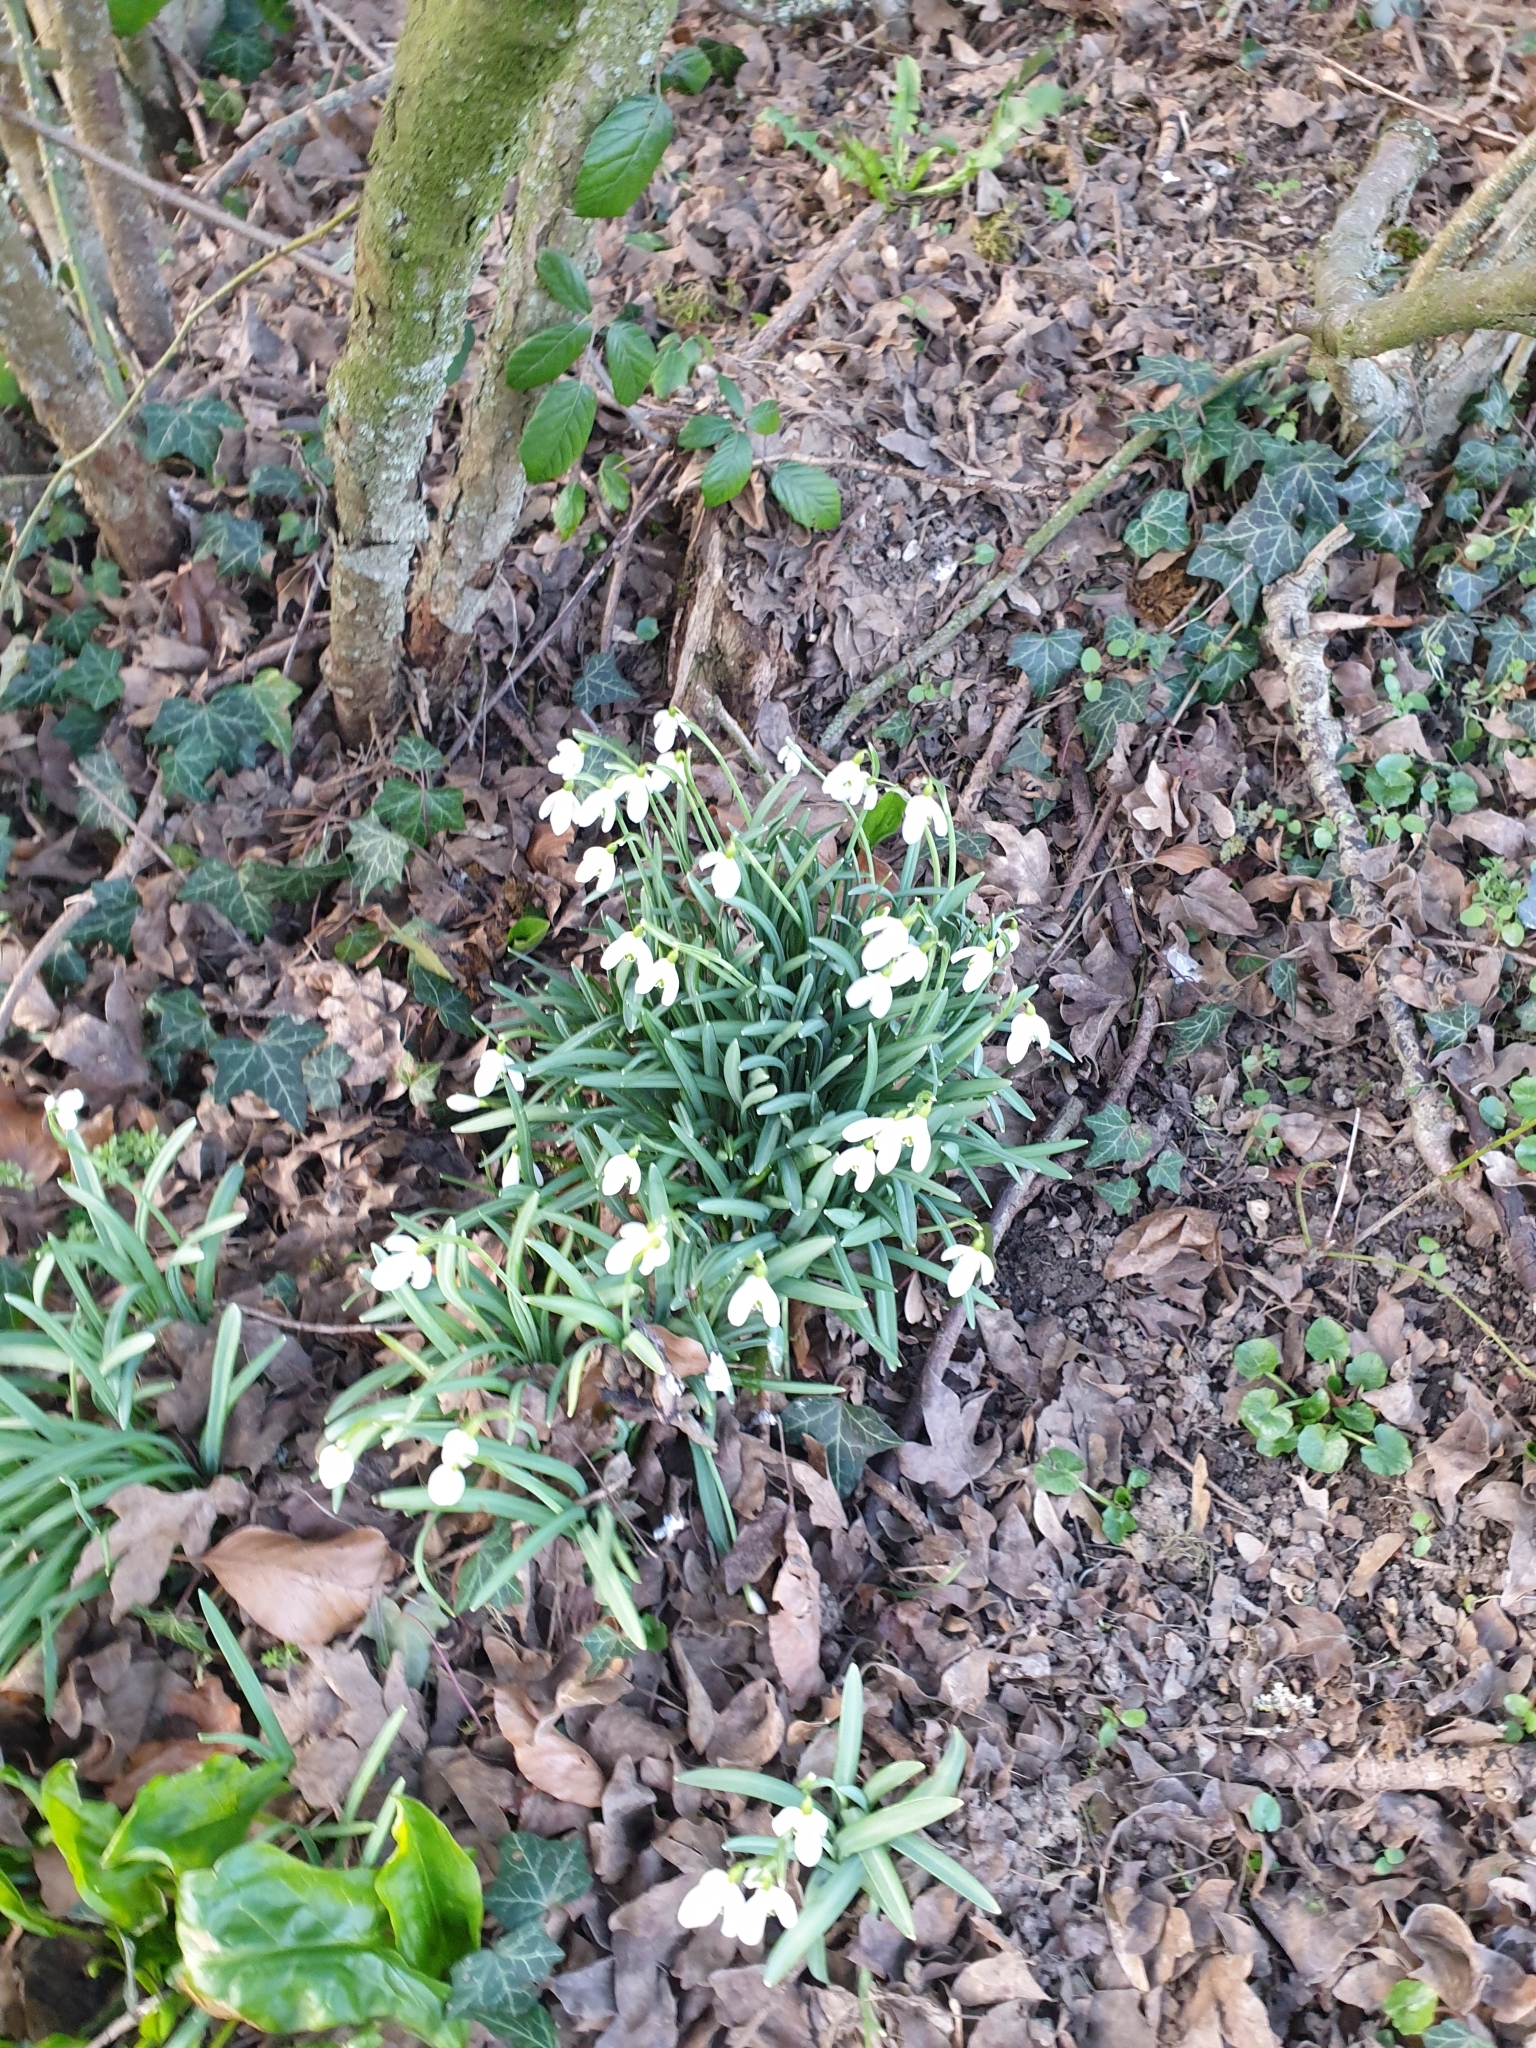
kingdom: Plantae
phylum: Tracheophyta
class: Liliopsida
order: Asparagales
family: Amaryllidaceae
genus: Galanthus
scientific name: Galanthus nivalis
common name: Snowdrop
